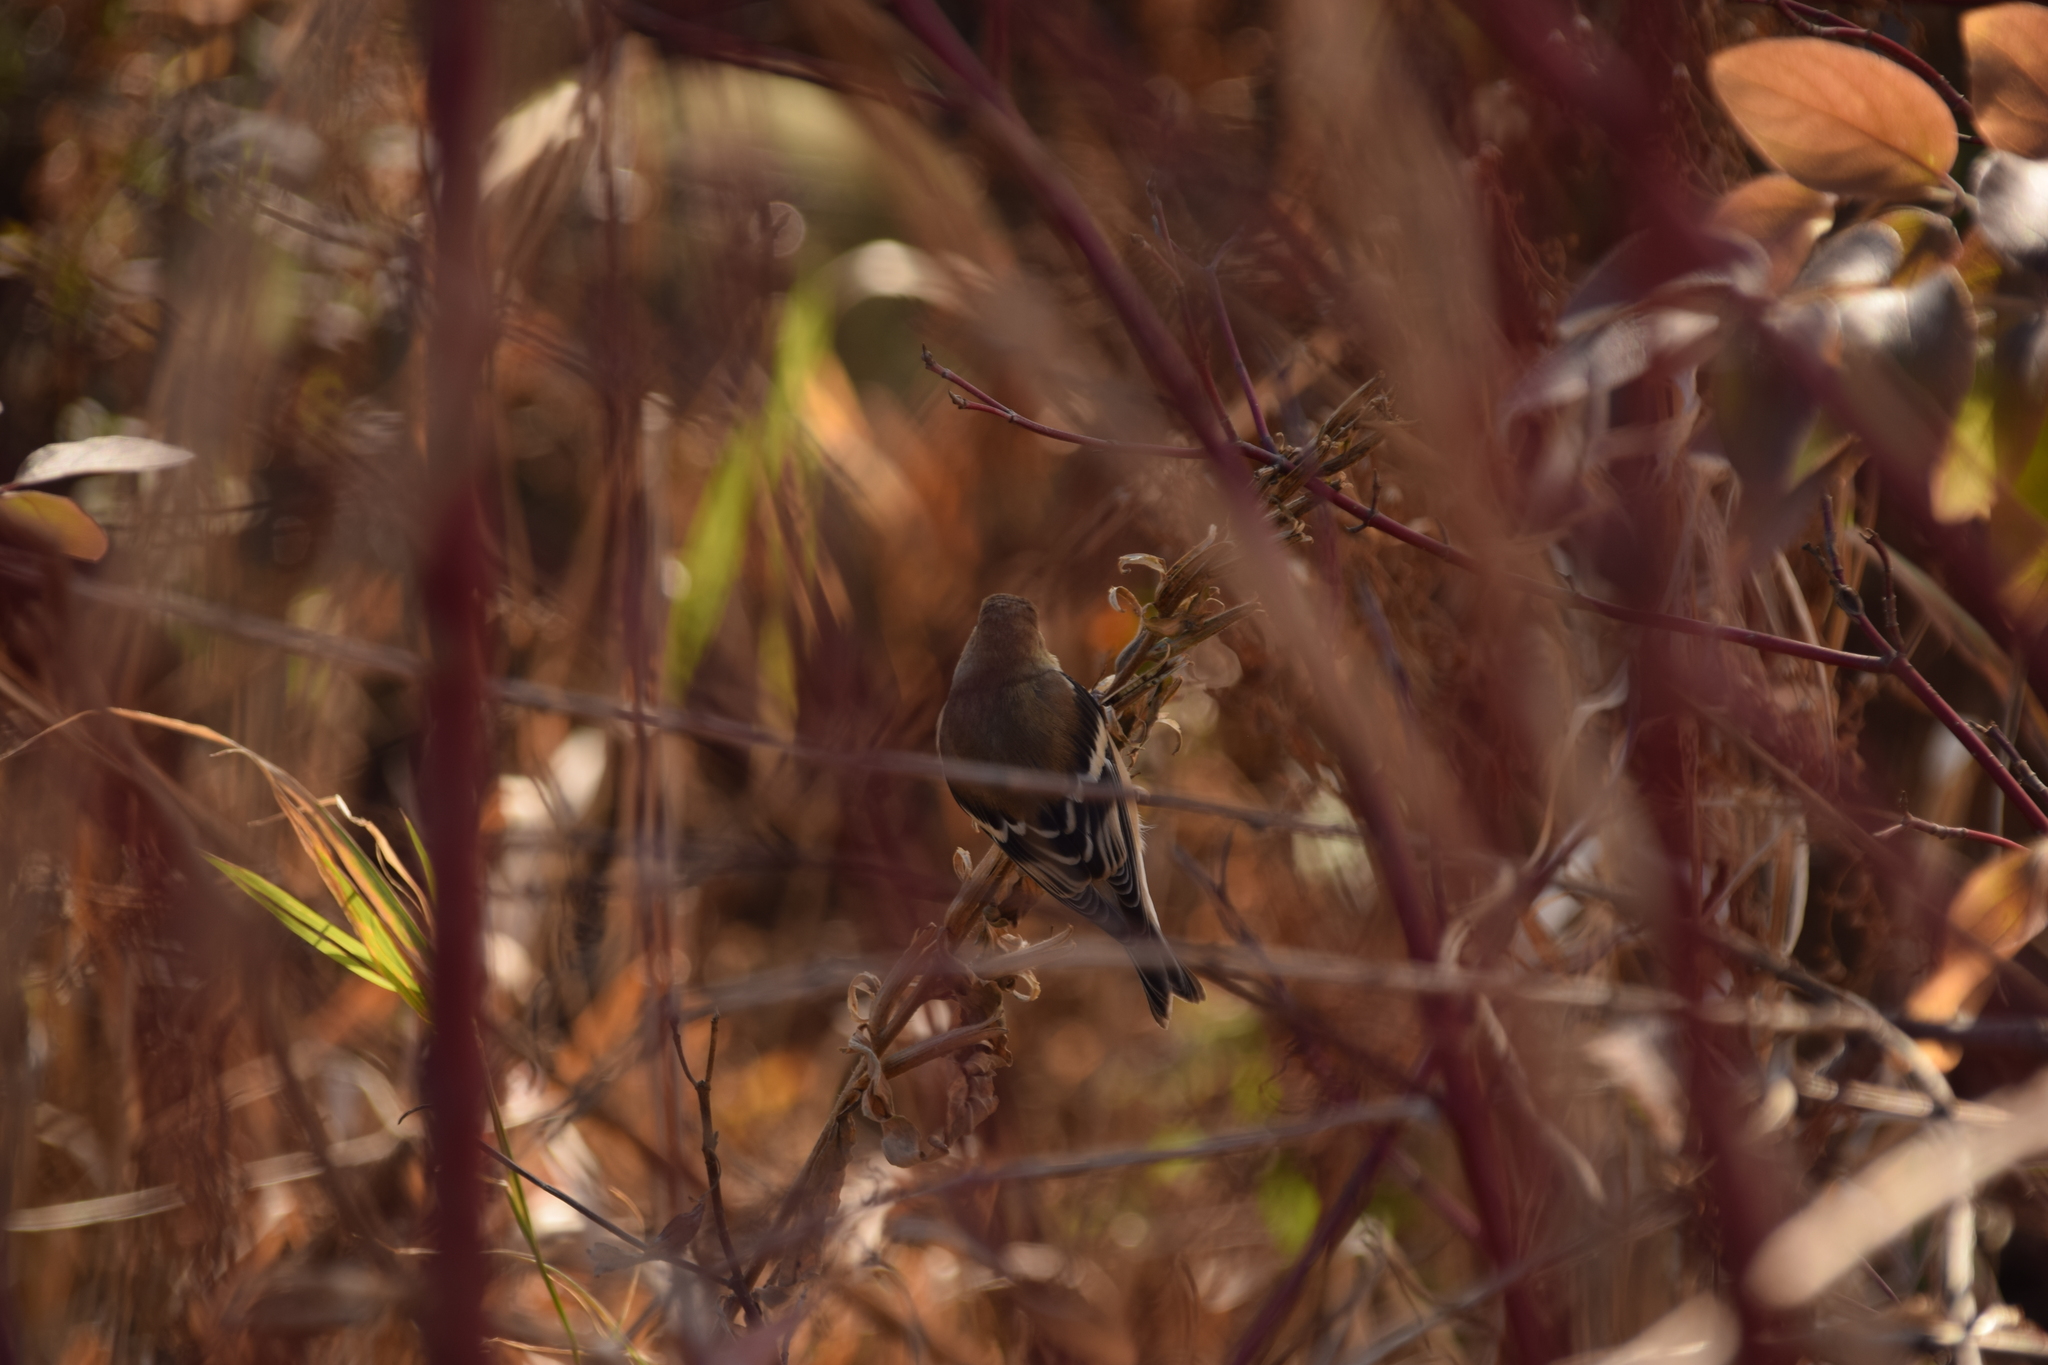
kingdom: Animalia
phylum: Chordata
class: Aves
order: Passeriformes
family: Fringillidae
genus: Spinus
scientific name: Spinus tristis
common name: American goldfinch
